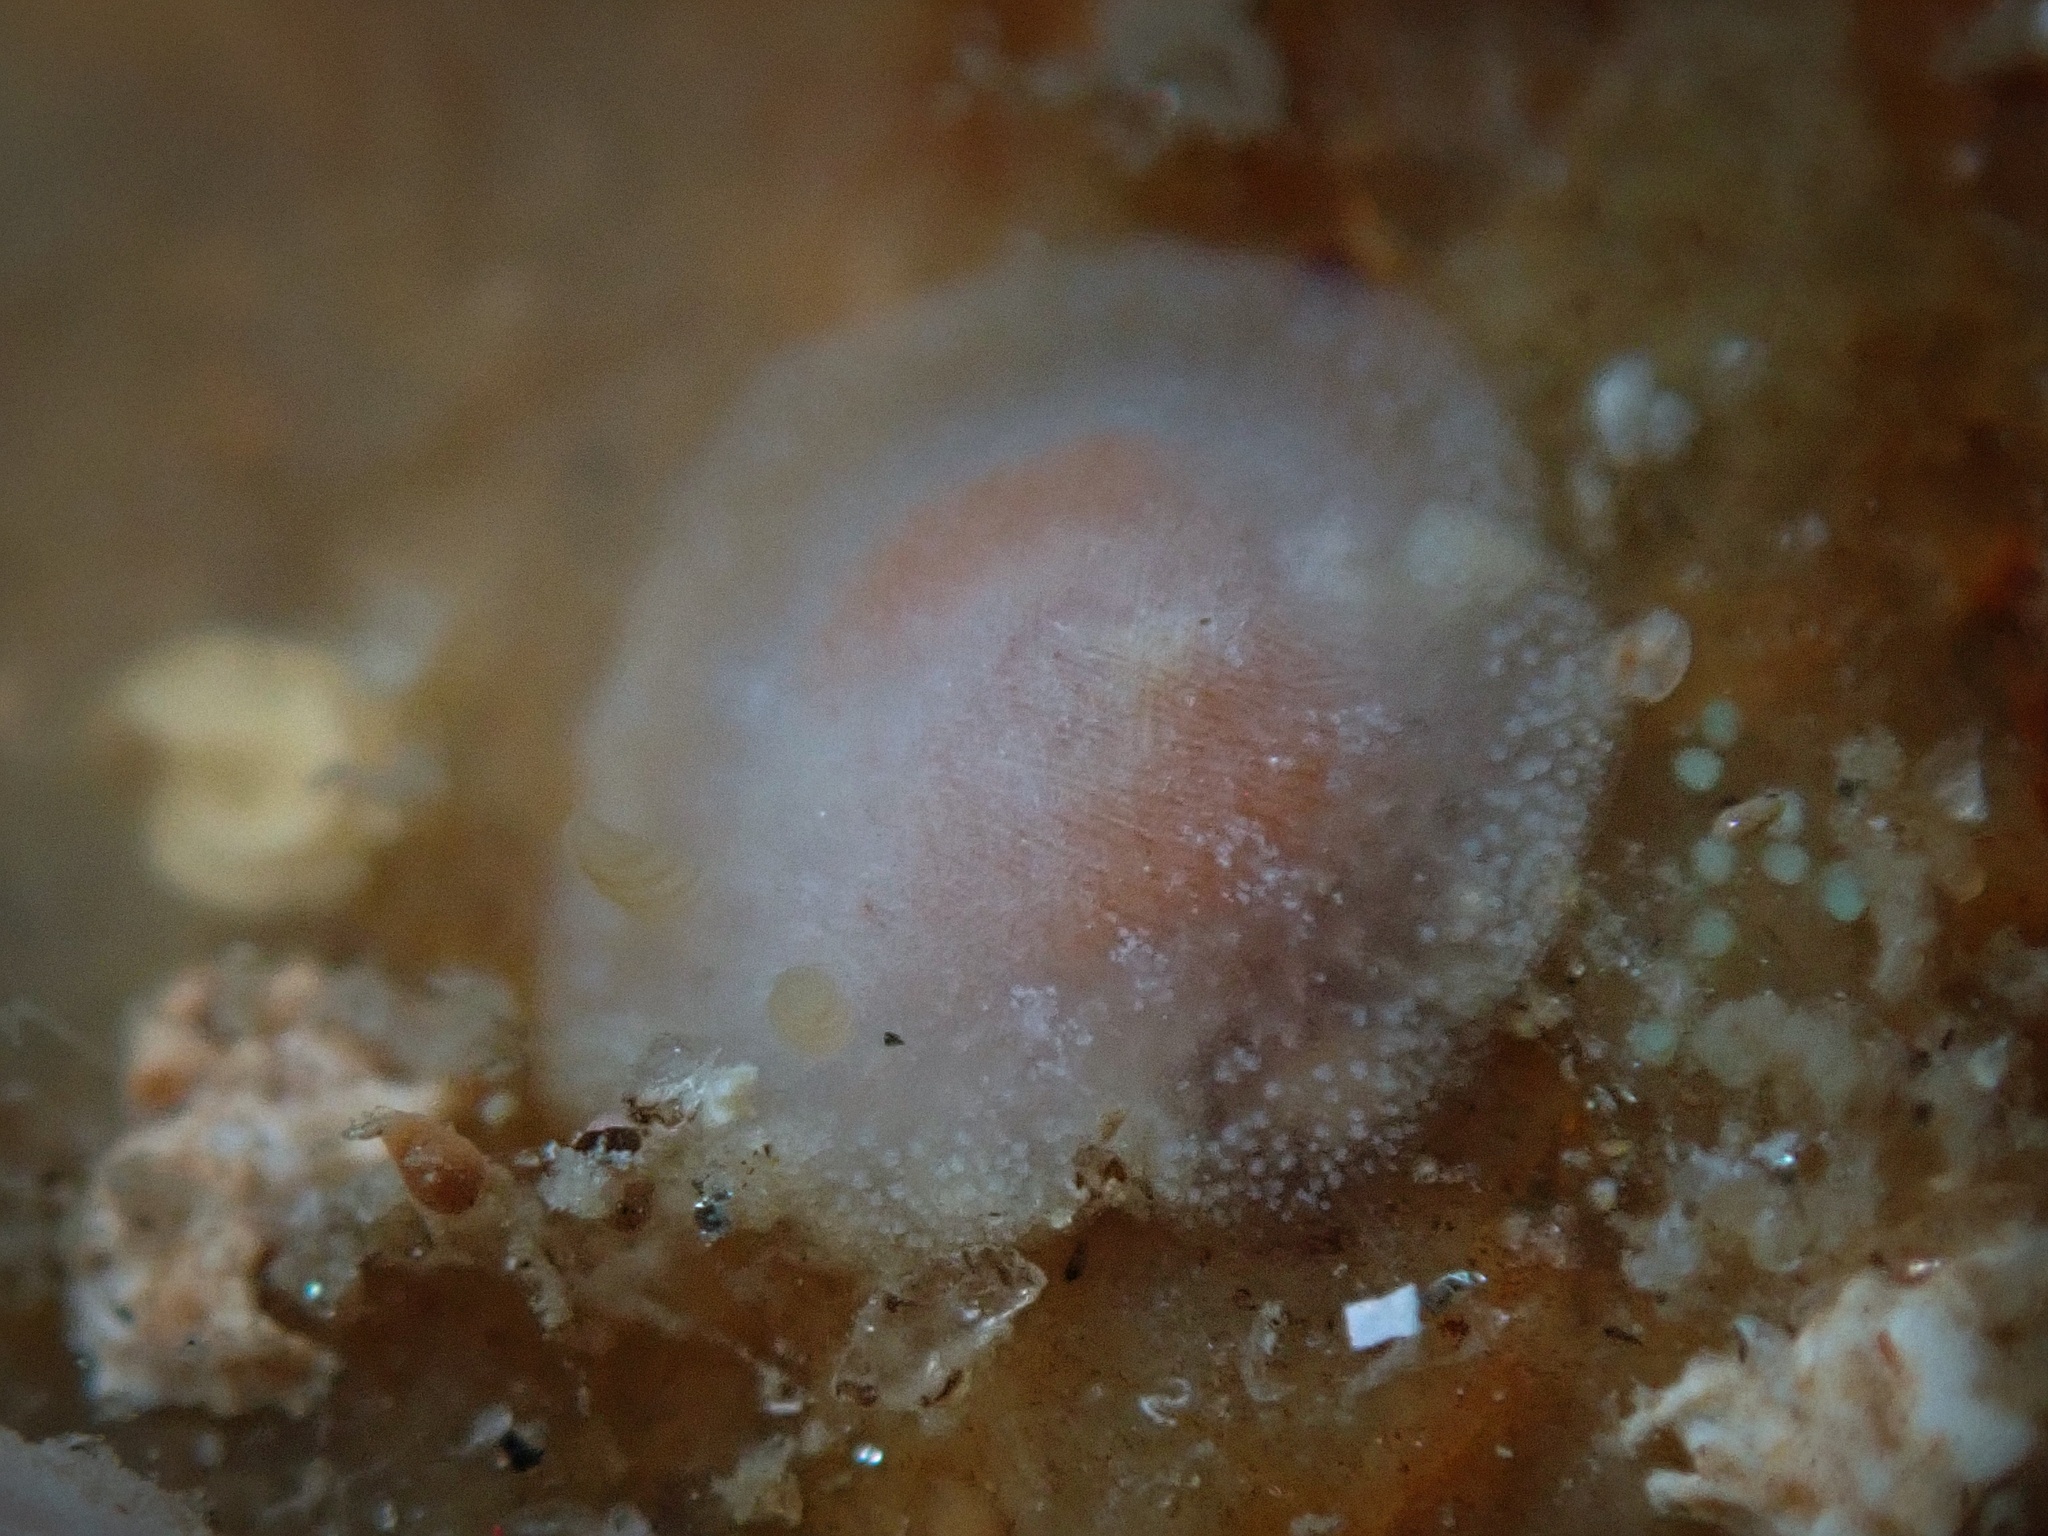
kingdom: Animalia
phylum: Mollusca
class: Gastropoda
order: Nudibranchia
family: Dendrodorididae
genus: Doriopsilla
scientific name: Doriopsilla rowena
